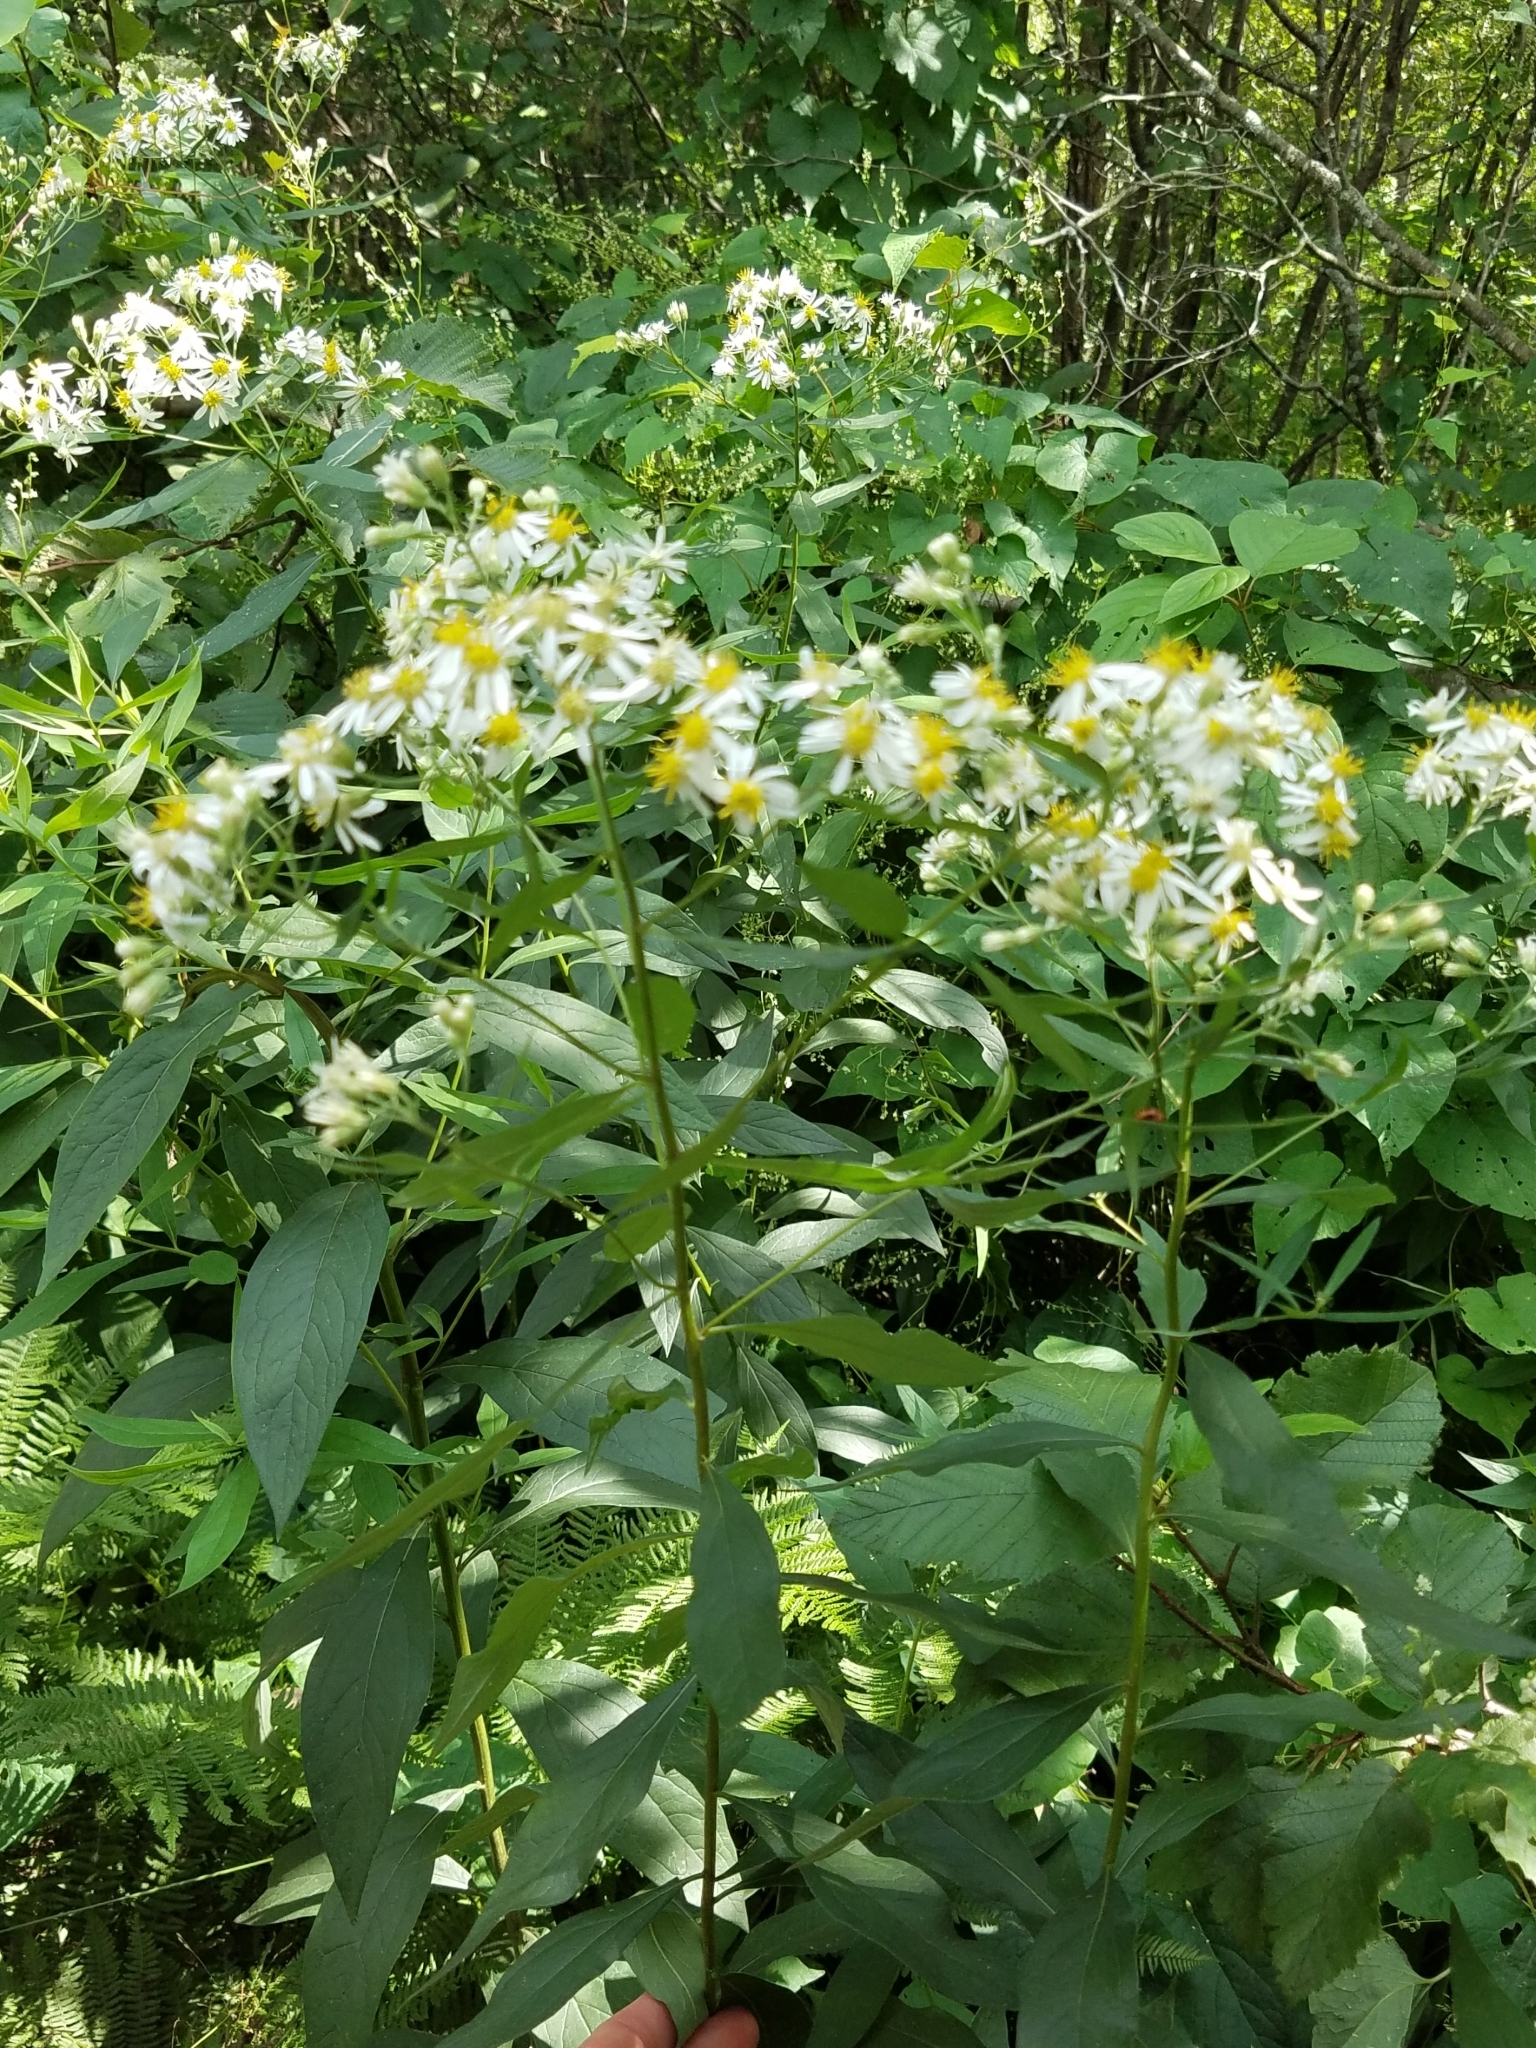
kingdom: Plantae
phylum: Tracheophyta
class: Magnoliopsida
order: Asterales
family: Asteraceae
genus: Doellingeria
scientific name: Doellingeria umbellata
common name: Flat-top white aster
